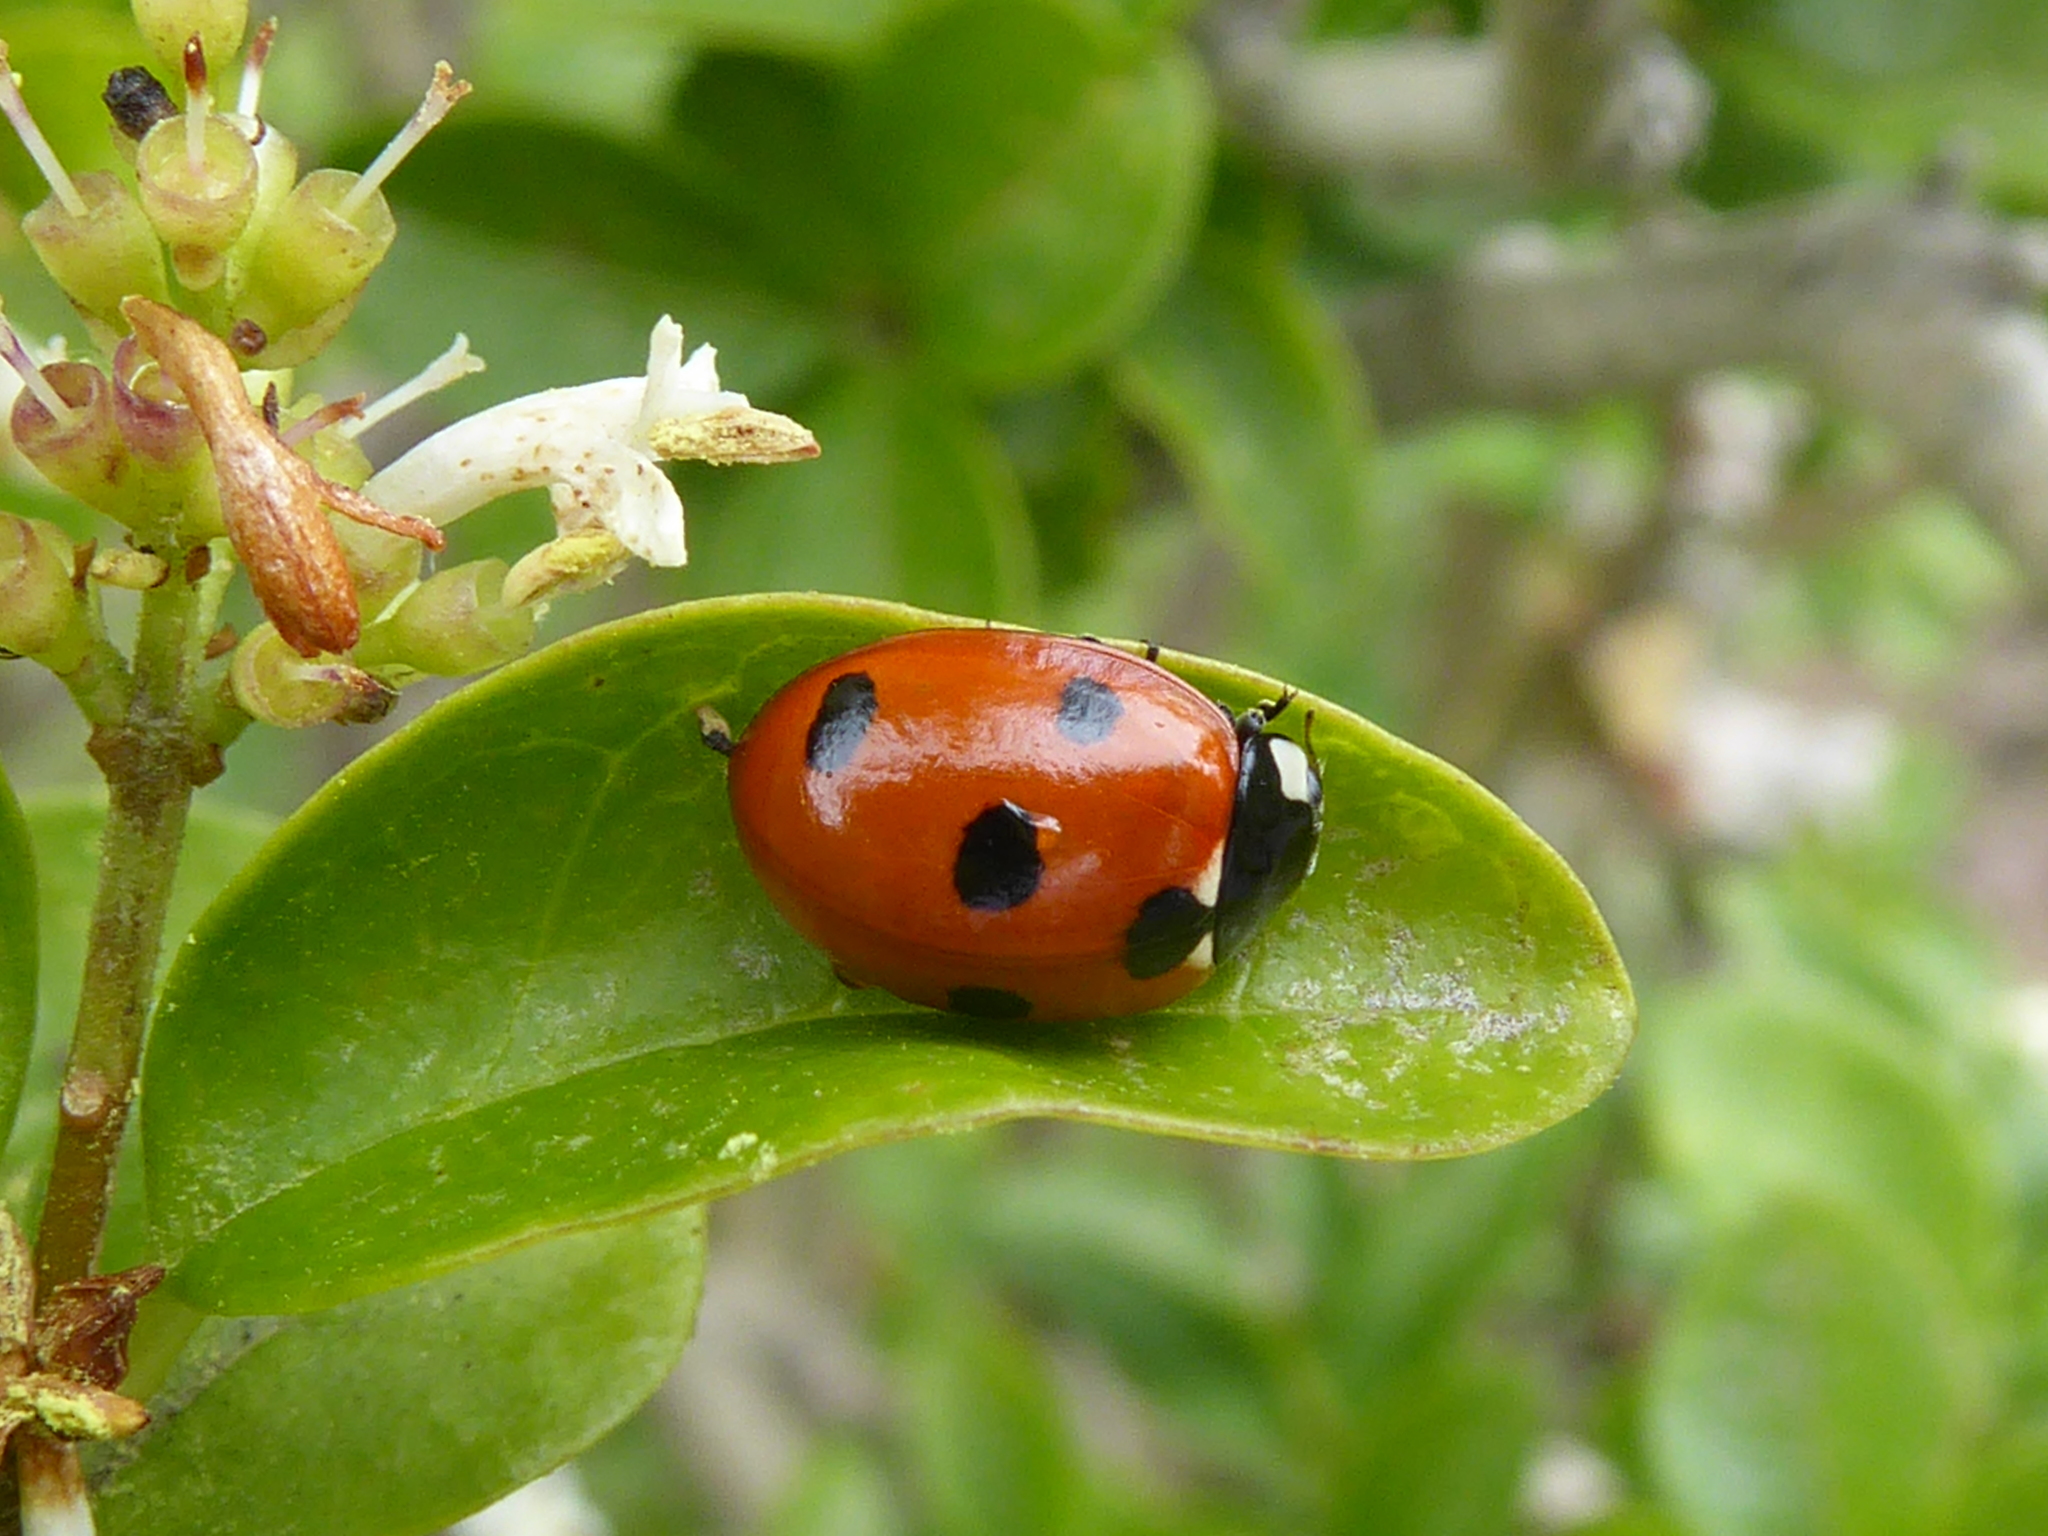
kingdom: Animalia
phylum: Arthropoda
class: Insecta
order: Coleoptera
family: Coccinellidae
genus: Coccinella
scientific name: Coccinella septempunctata
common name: Sevenspotted lady beetle
